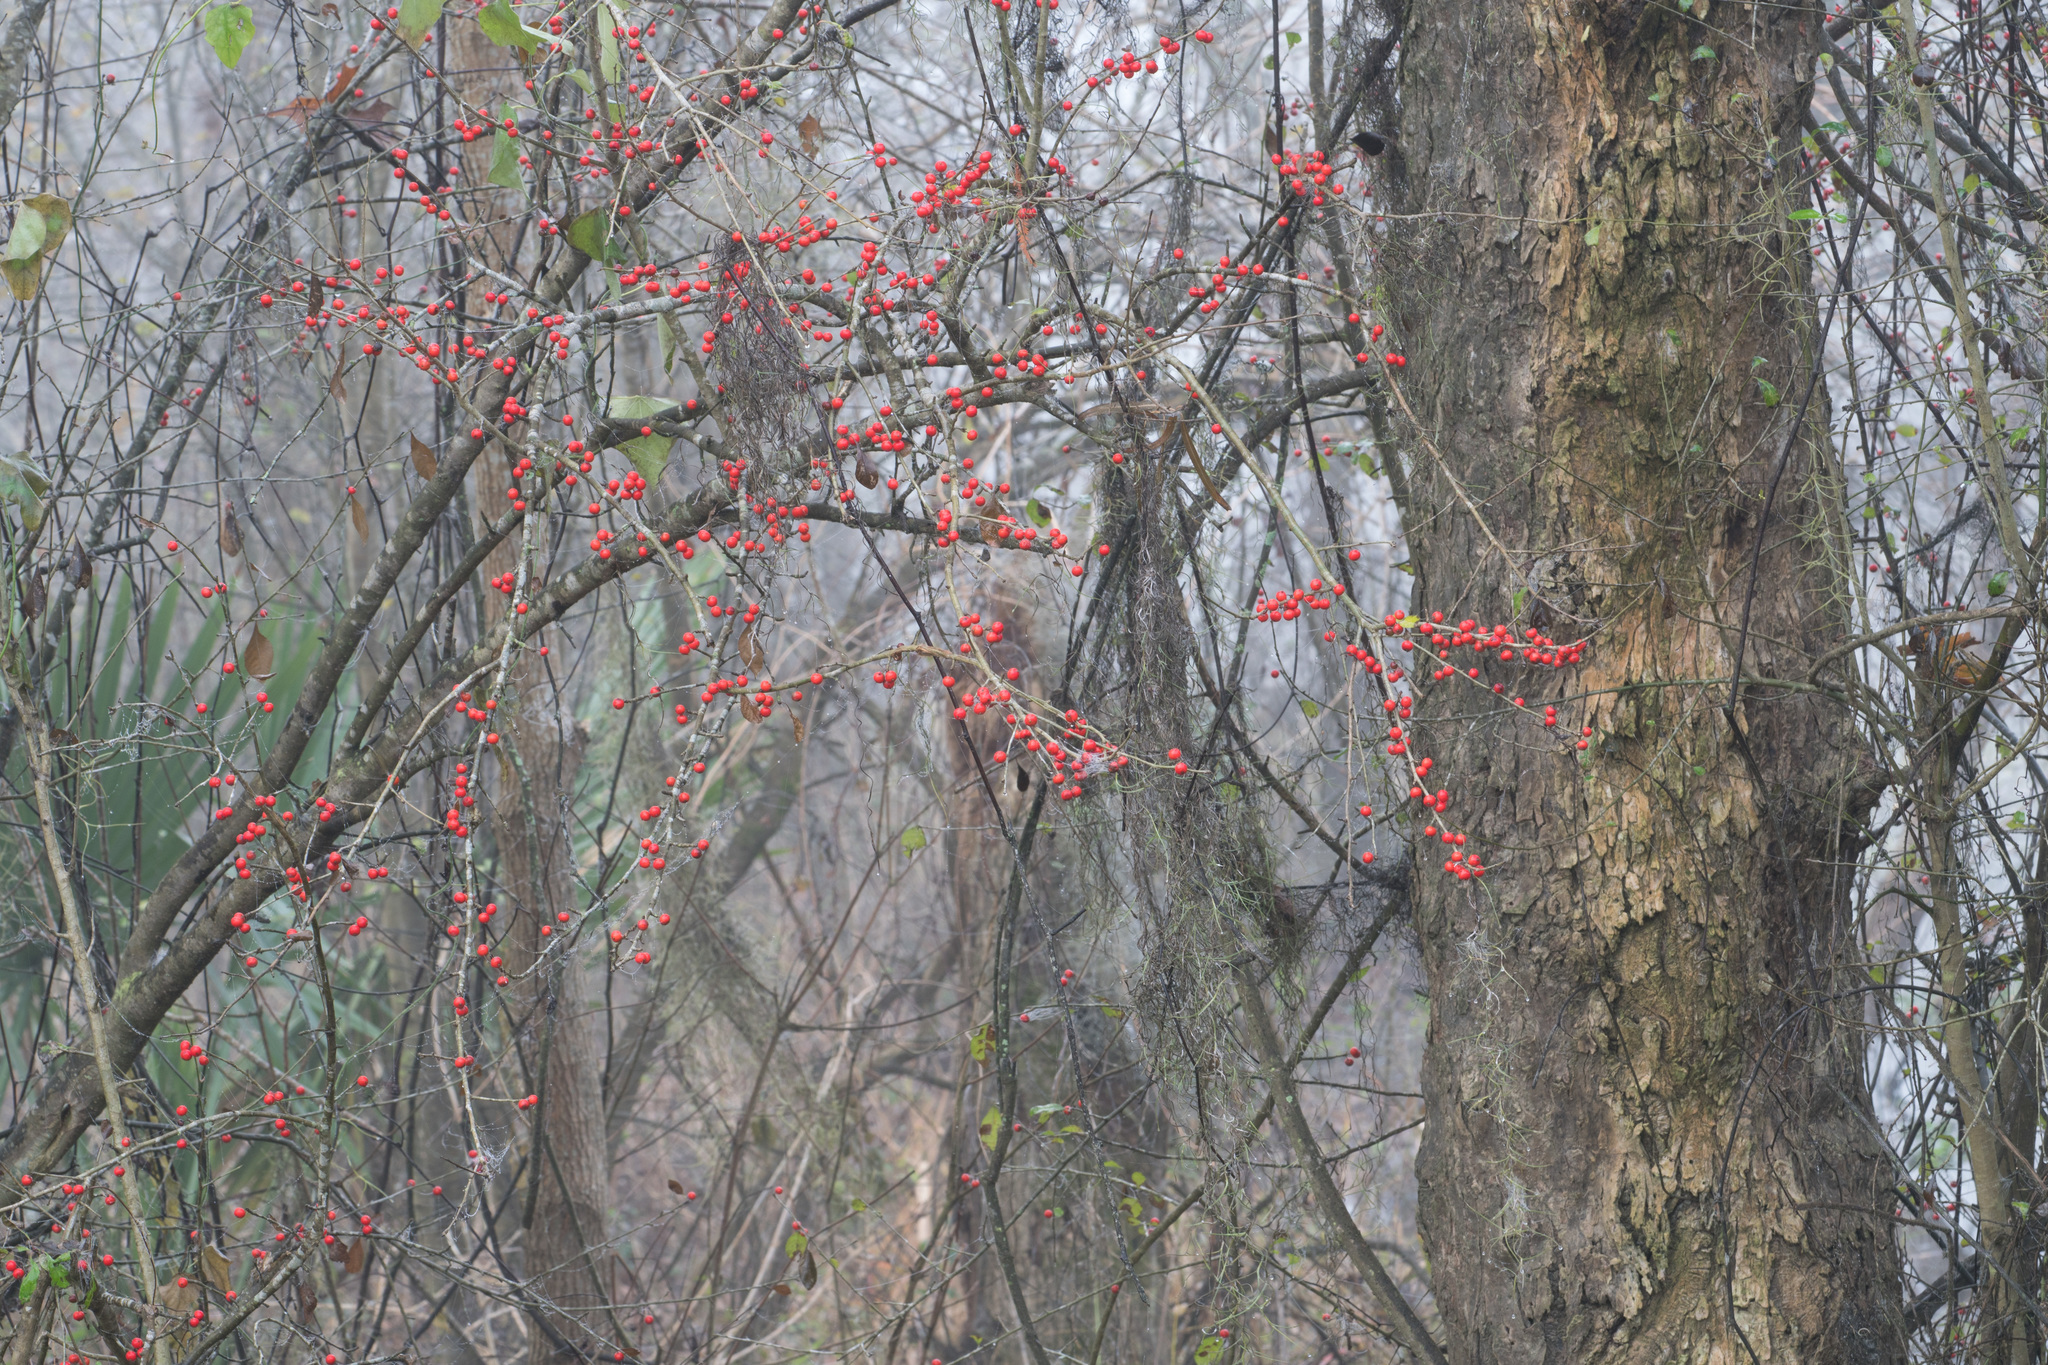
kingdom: Plantae
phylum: Tracheophyta
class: Magnoliopsida
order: Aquifoliales
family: Aquifoliaceae
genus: Ilex
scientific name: Ilex decidua
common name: Possum-haw
